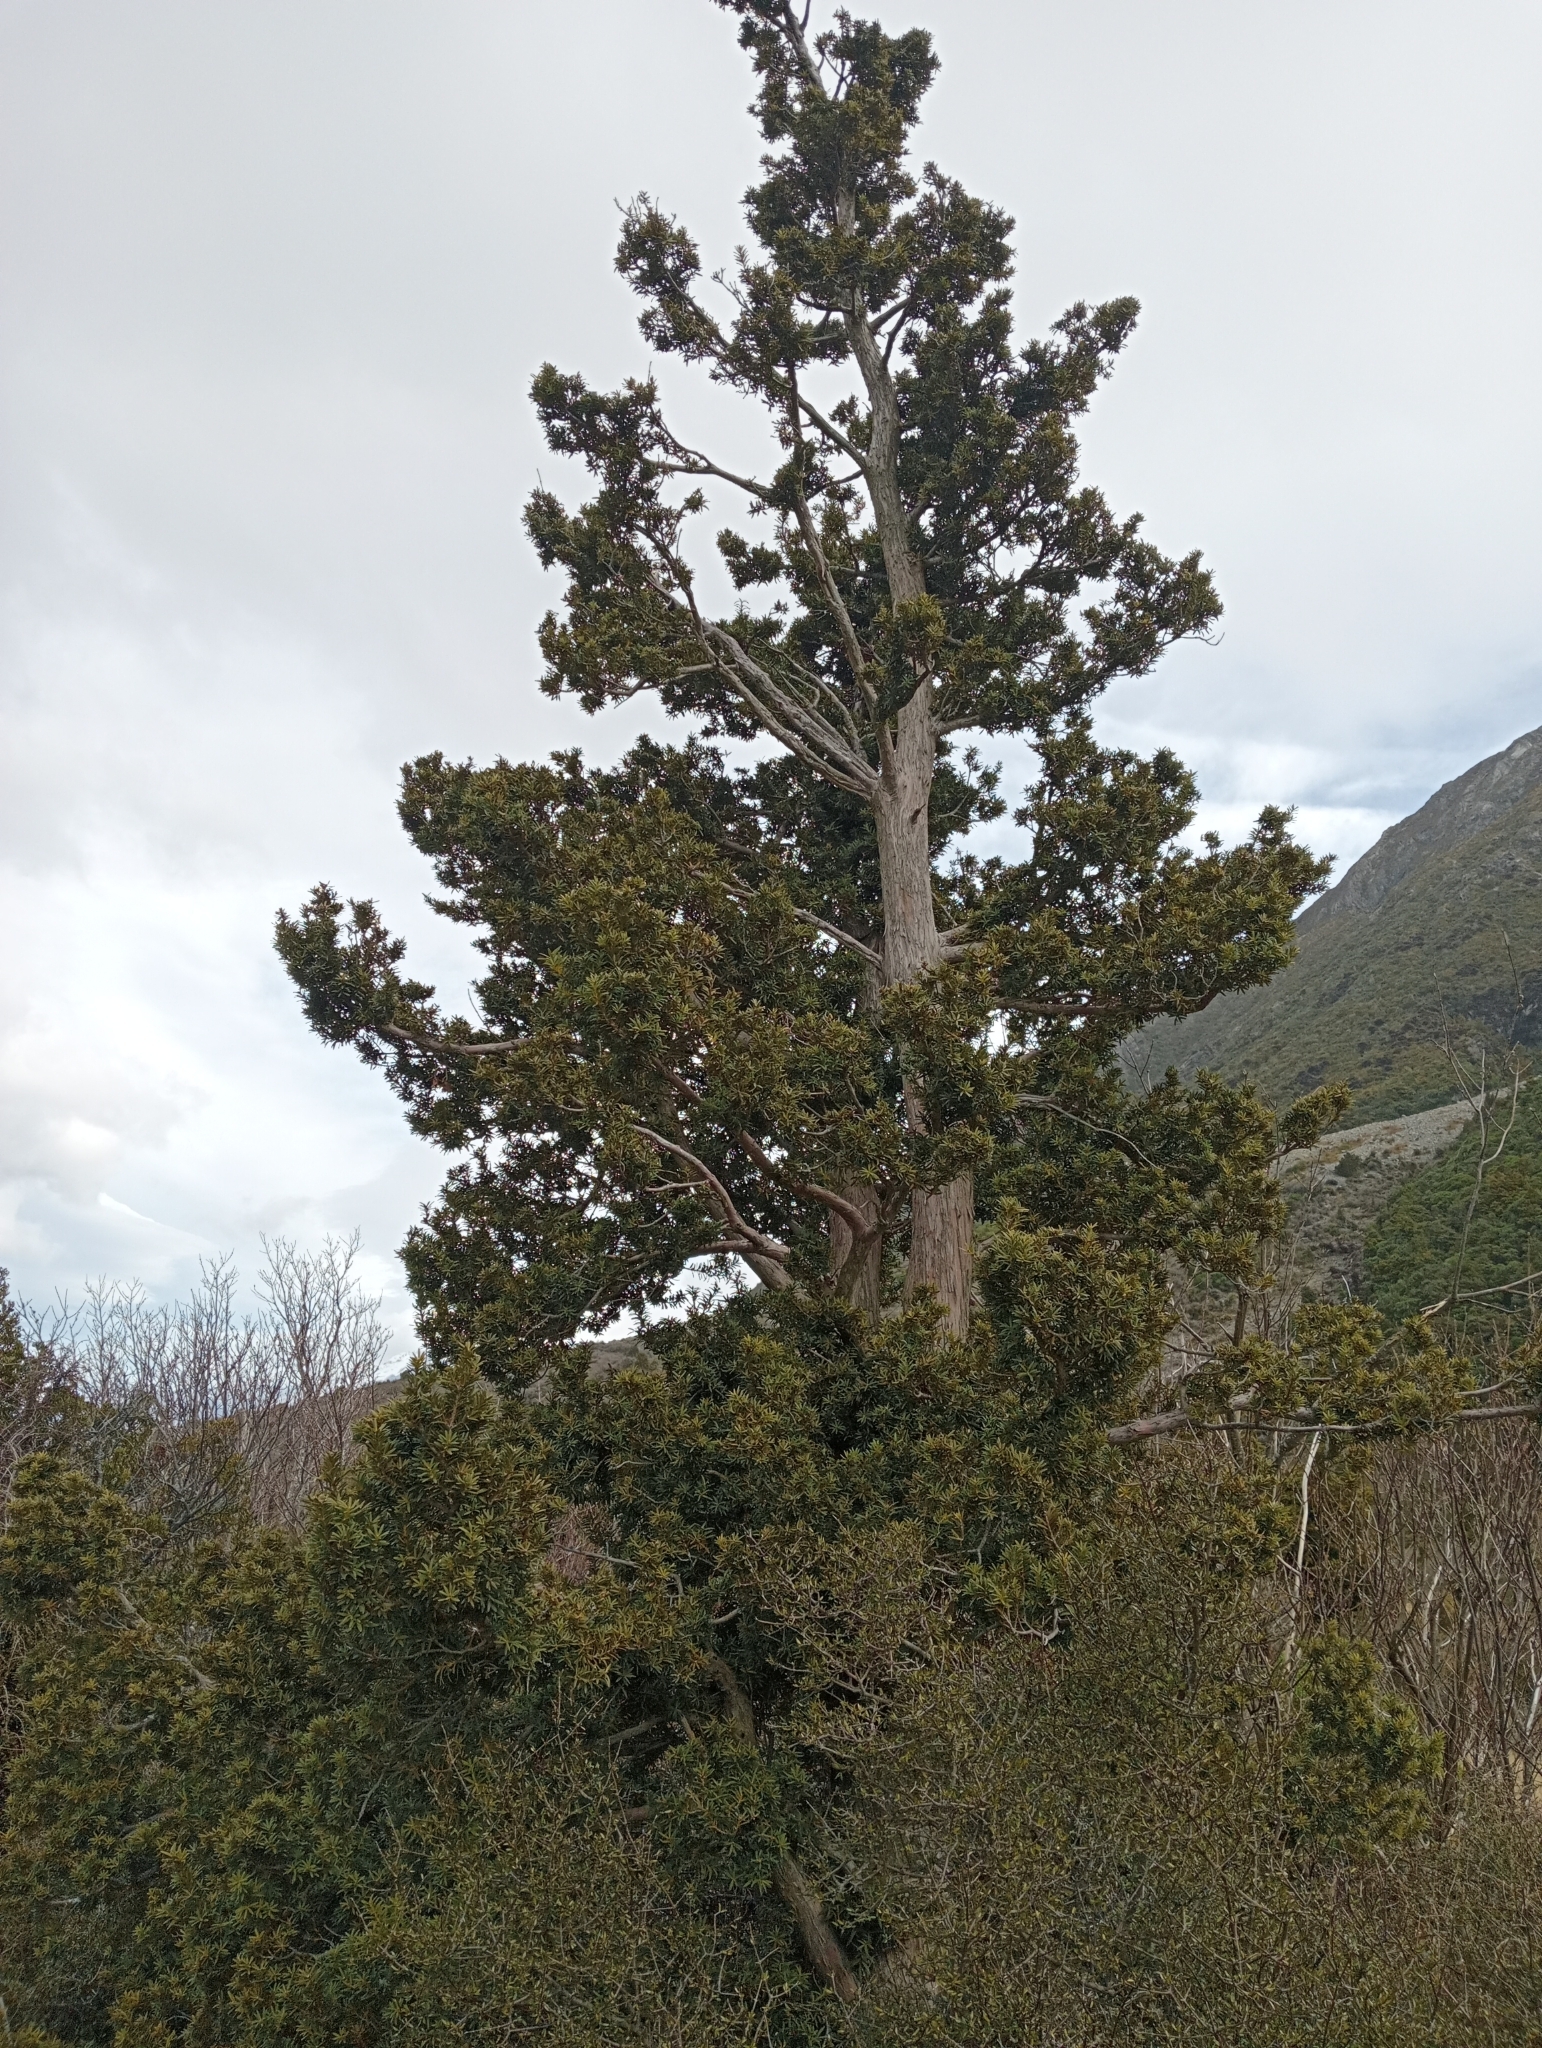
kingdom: Plantae
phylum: Tracheophyta
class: Pinopsida
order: Pinales
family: Podocarpaceae
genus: Podocarpus
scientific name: Podocarpus laetus
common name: Hall's totara
